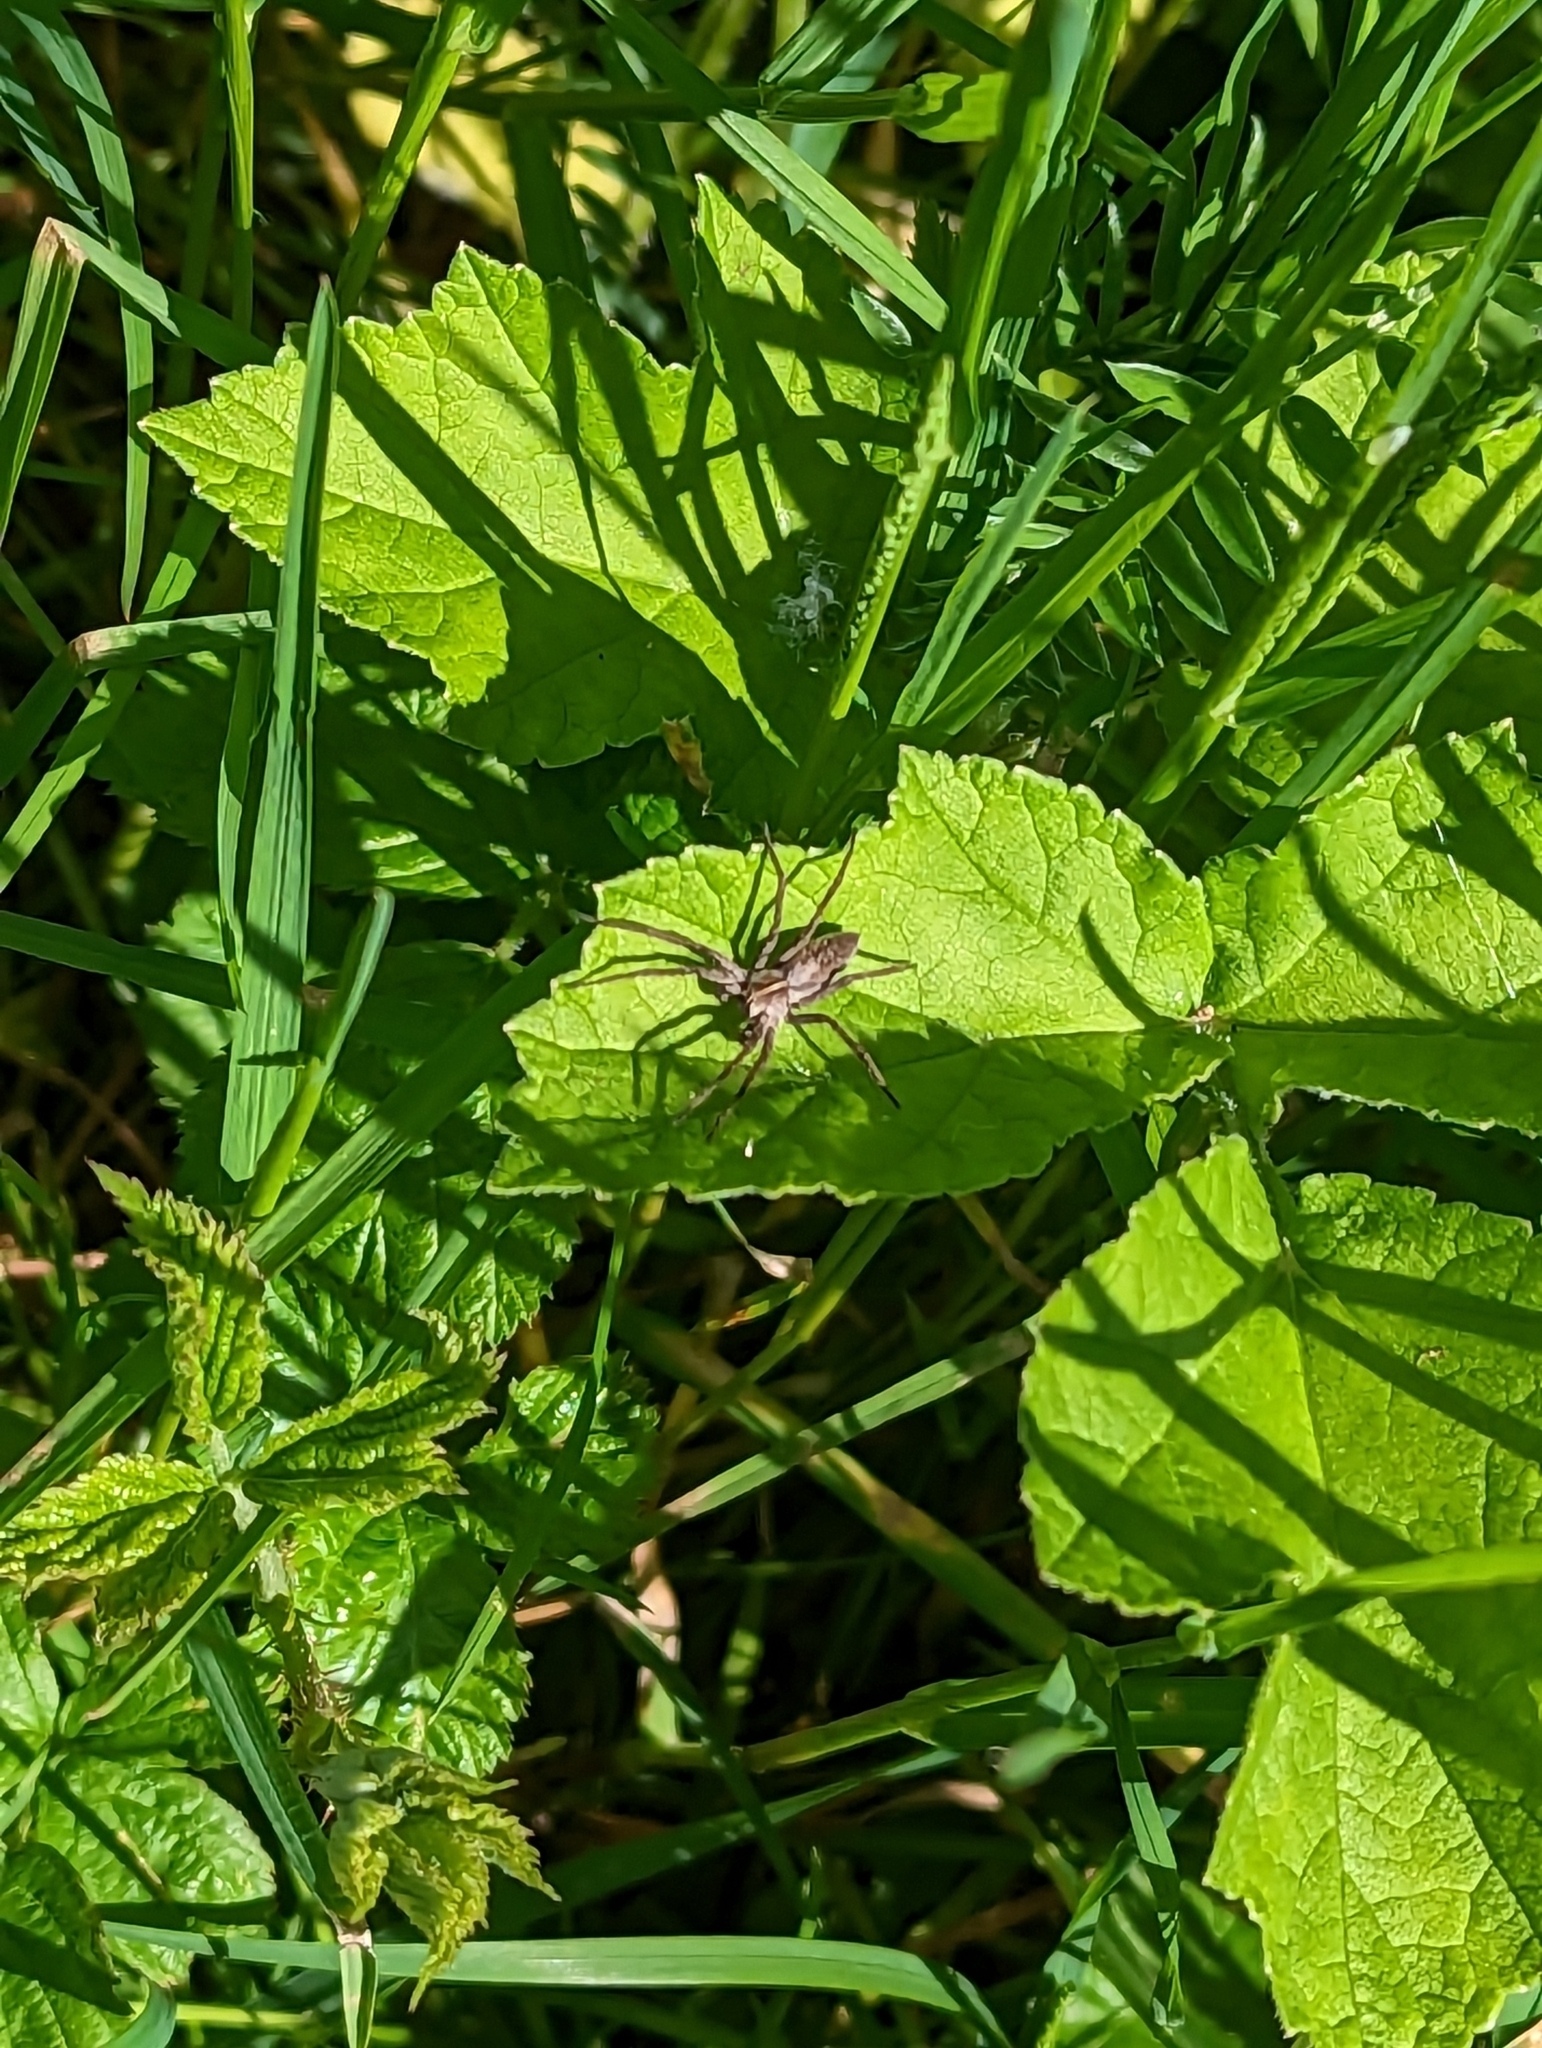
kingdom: Animalia
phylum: Arthropoda
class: Arachnida
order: Araneae
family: Pisauridae
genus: Pisaura
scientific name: Pisaura mirabilis
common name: Tent spider
